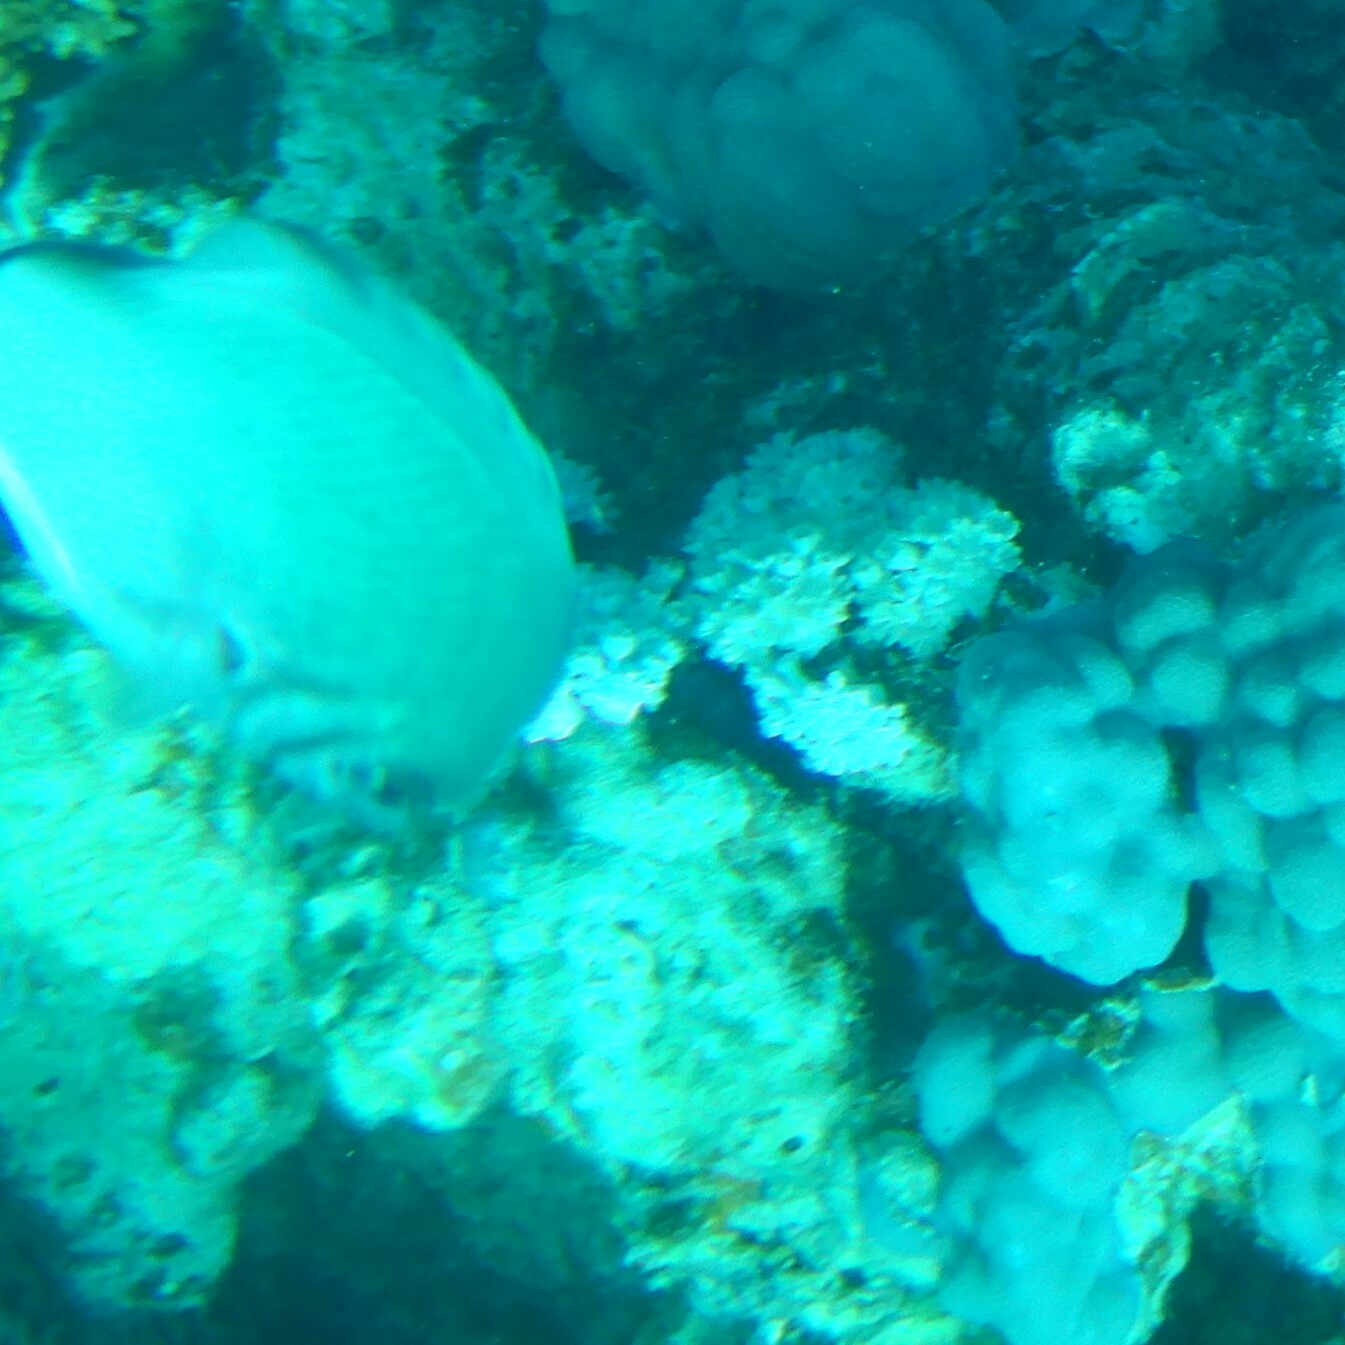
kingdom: Animalia
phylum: Chordata
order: Perciformes
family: Pomacentridae
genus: Amblyglyphidodon
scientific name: Amblyglyphidodon indicus
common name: Maldives damselfish
